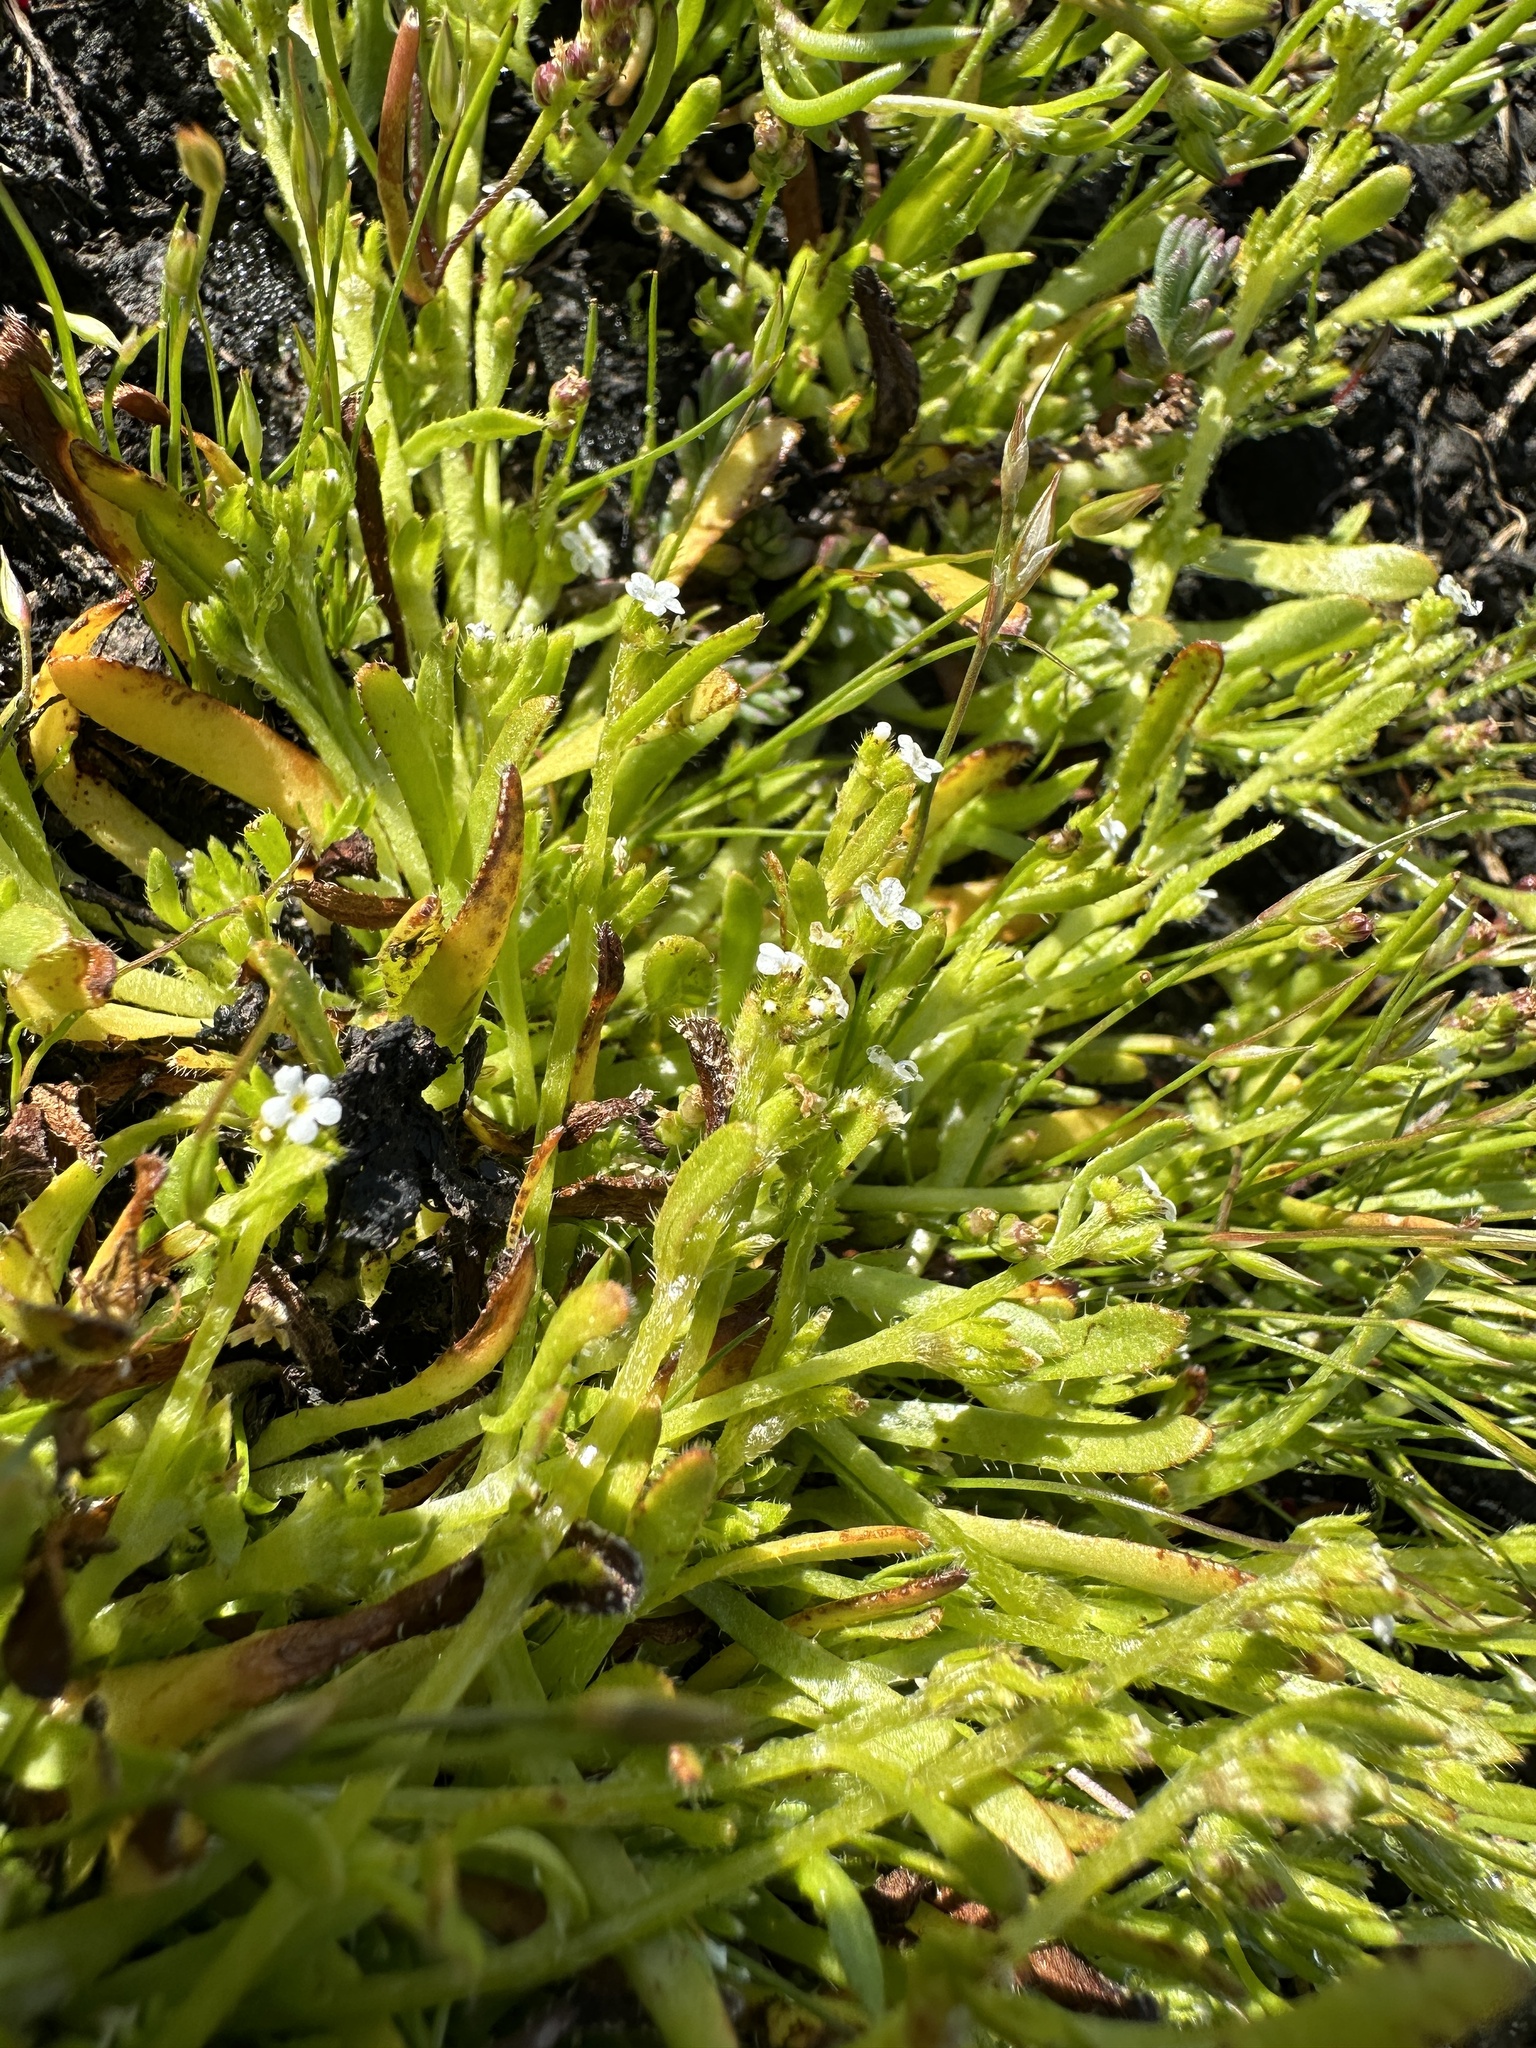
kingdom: Plantae
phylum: Tracheophyta
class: Magnoliopsida
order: Boraginales
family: Boraginaceae
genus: Plagiobothrys
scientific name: Plagiobothrys leptocladus
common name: Alkali popcornflower
